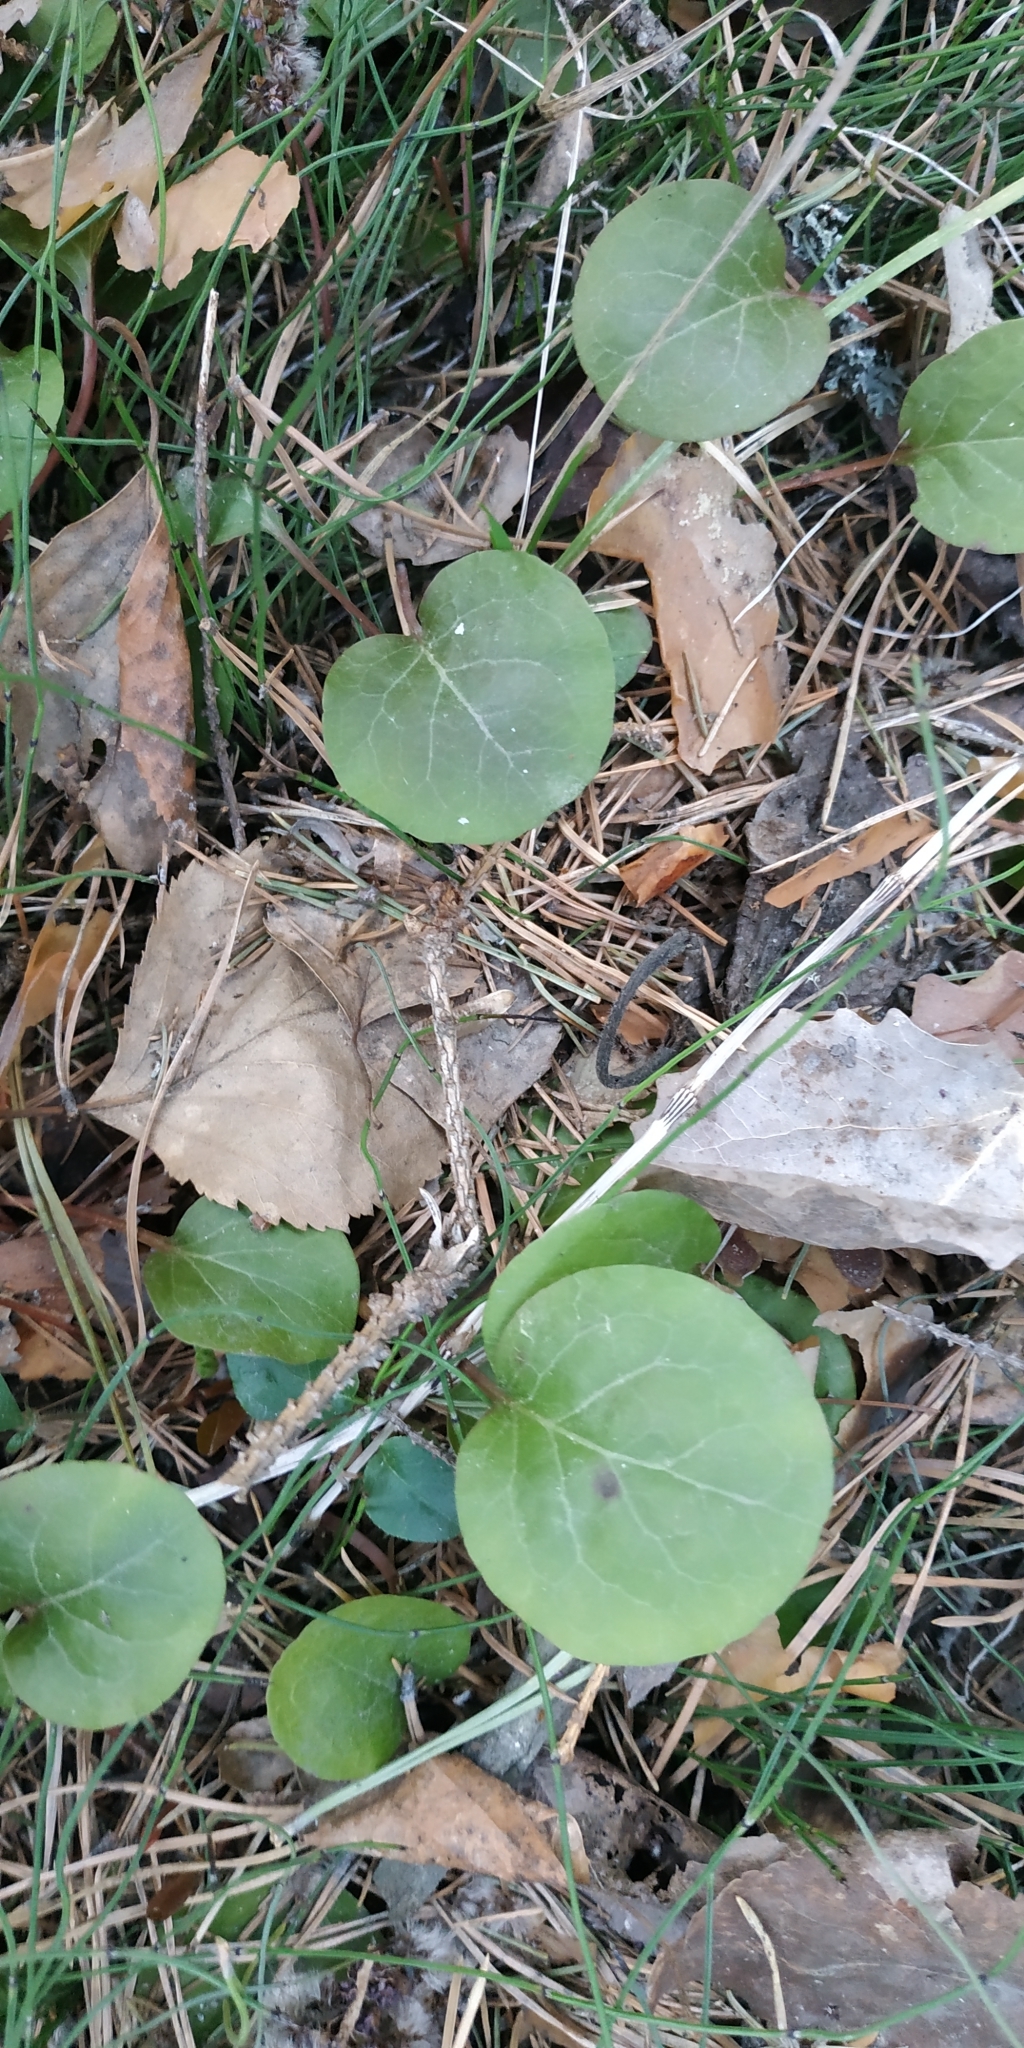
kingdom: Plantae
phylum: Tracheophyta
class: Magnoliopsida
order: Ericales
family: Ericaceae
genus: Pyrola
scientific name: Pyrola rotundifolia
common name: Round-leaved wintergreen
